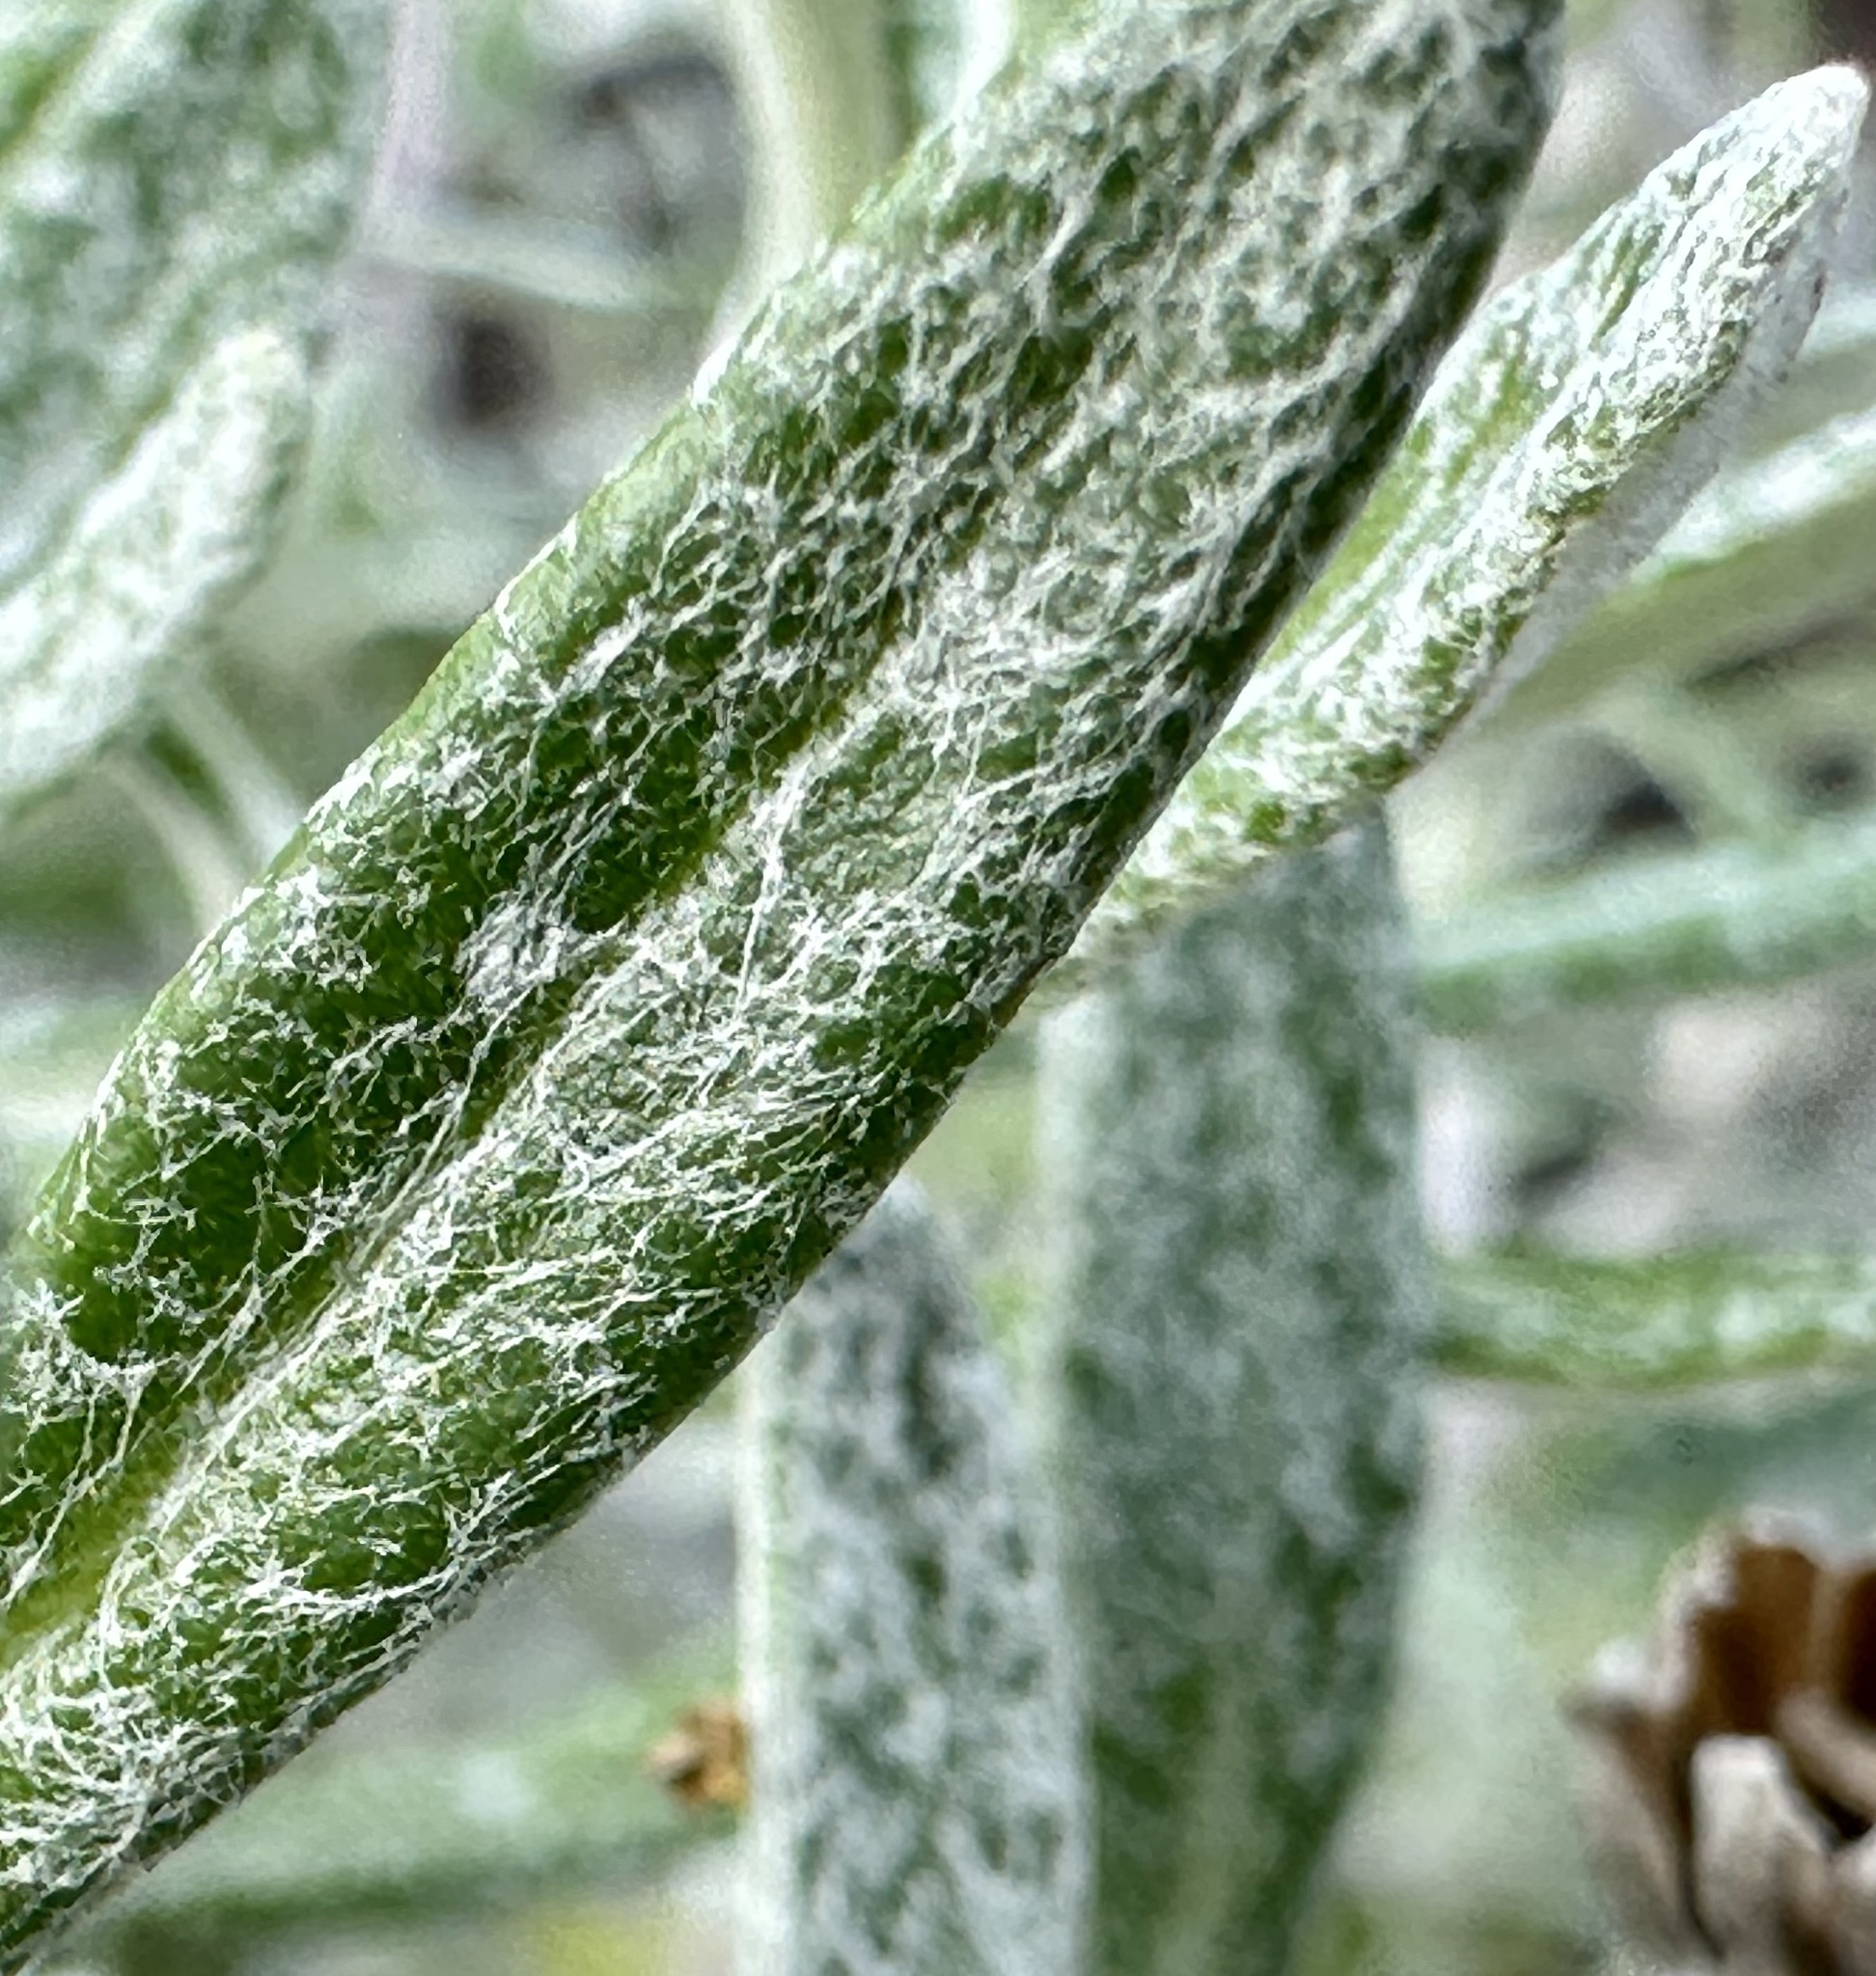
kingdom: Plantae
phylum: Tracheophyta
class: Magnoliopsida
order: Asterales
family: Asteraceae
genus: Eriophyllum
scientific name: Eriophyllum staechadifolium
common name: Lizardtail
